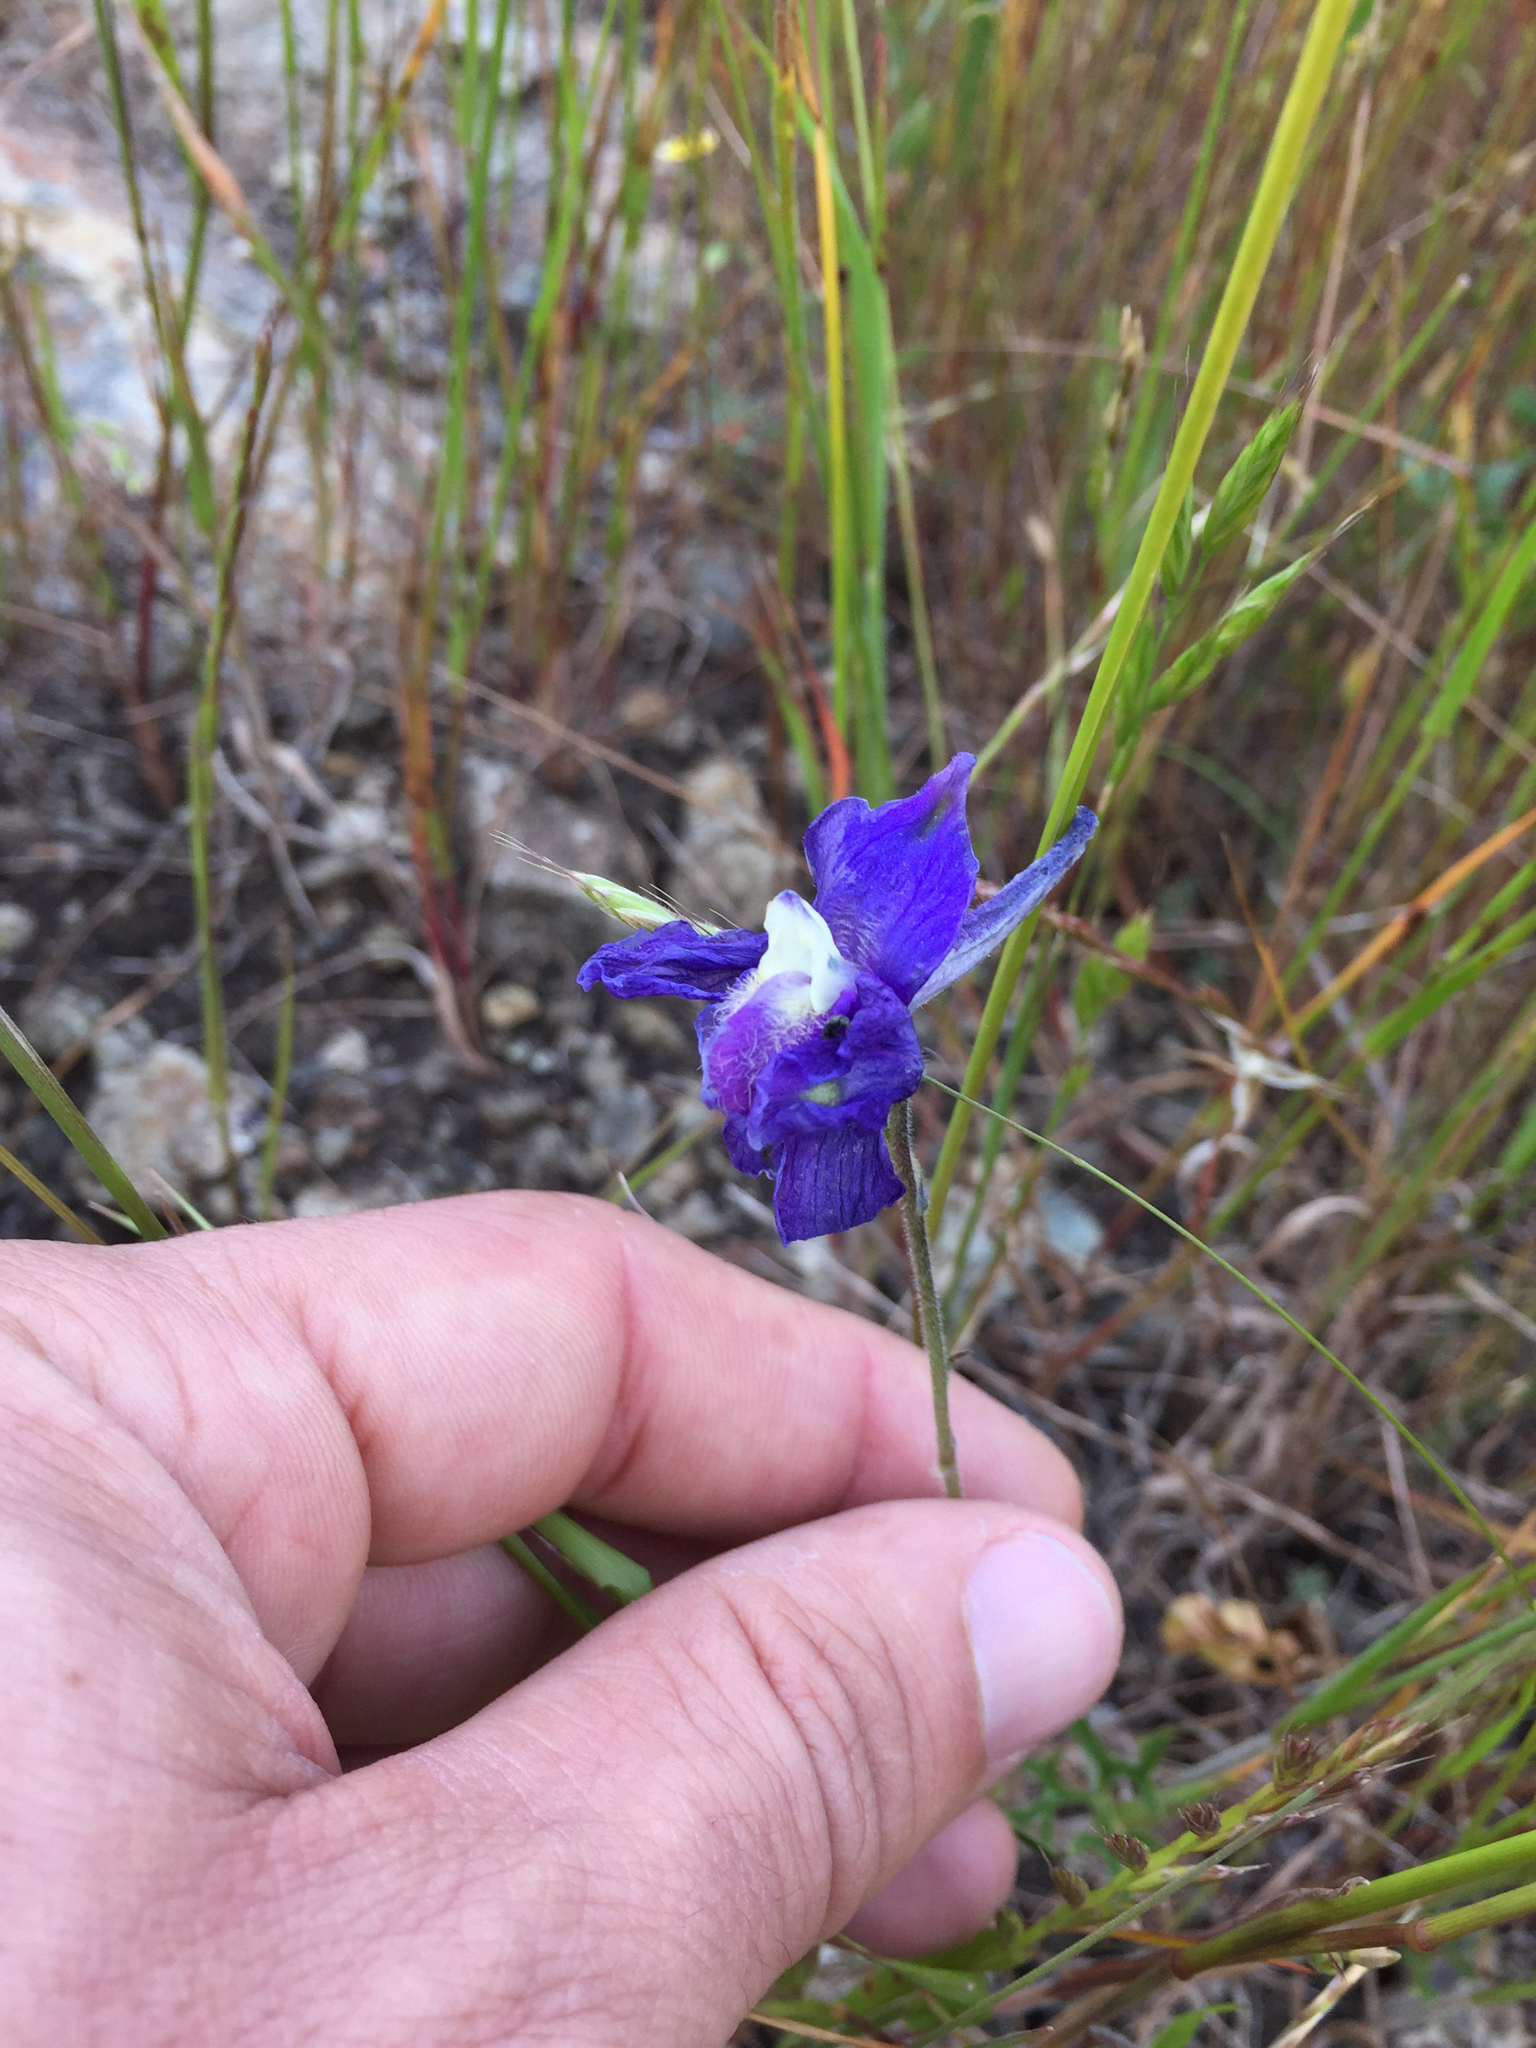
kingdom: Plantae
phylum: Tracheophyta
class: Magnoliopsida
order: Ranunculales
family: Ranunculaceae
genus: Delphinium
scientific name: Delphinium variegatum
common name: Royal larkspur
